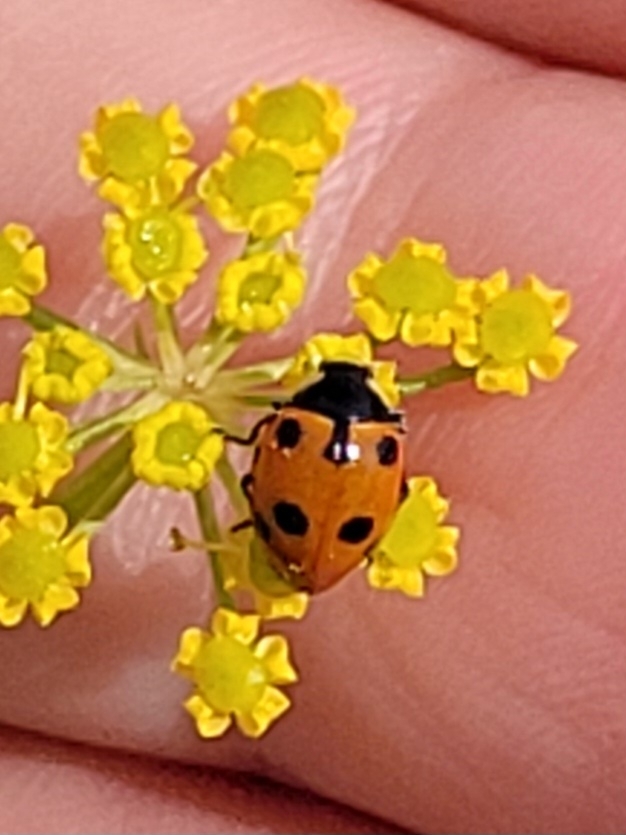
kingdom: Animalia
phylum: Arthropoda
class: Insecta
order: Coleoptera
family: Coccinellidae
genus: Ceratomegilla
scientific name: Ceratomegilla undecimnotata
